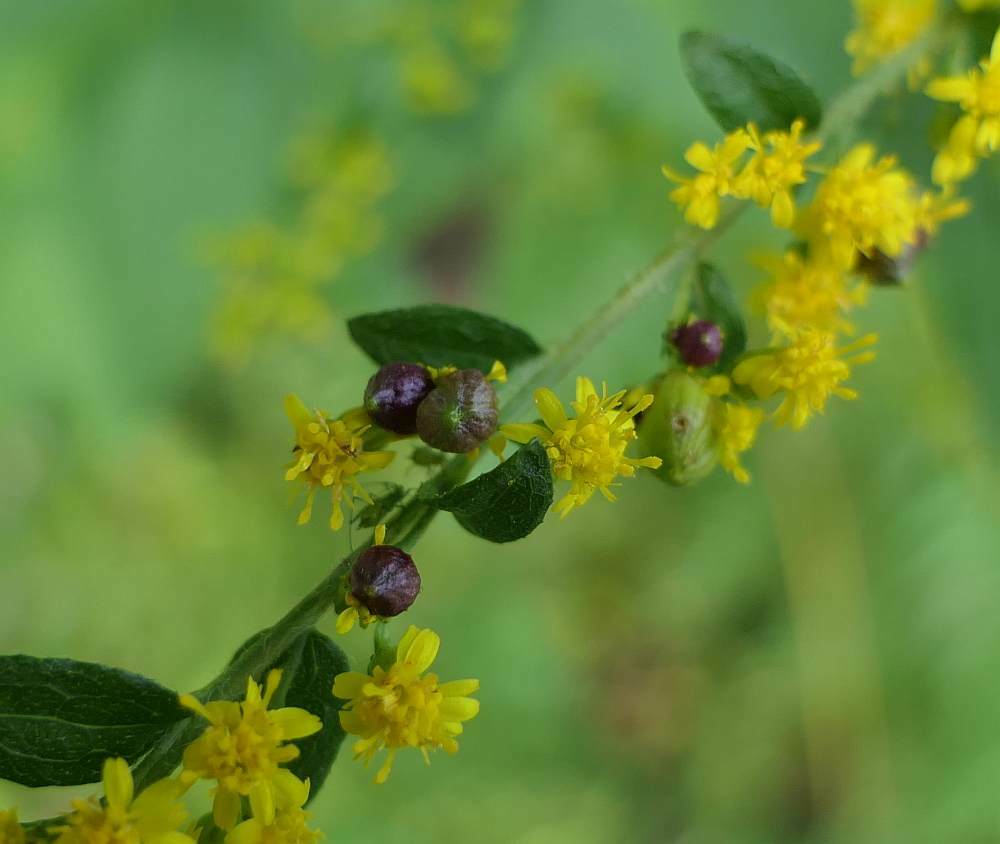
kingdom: Animalia
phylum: Arthropoda
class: Insecta
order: Diptera
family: Cecidomyiidae
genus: Schizomyia
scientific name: Schizomyia racemicola
